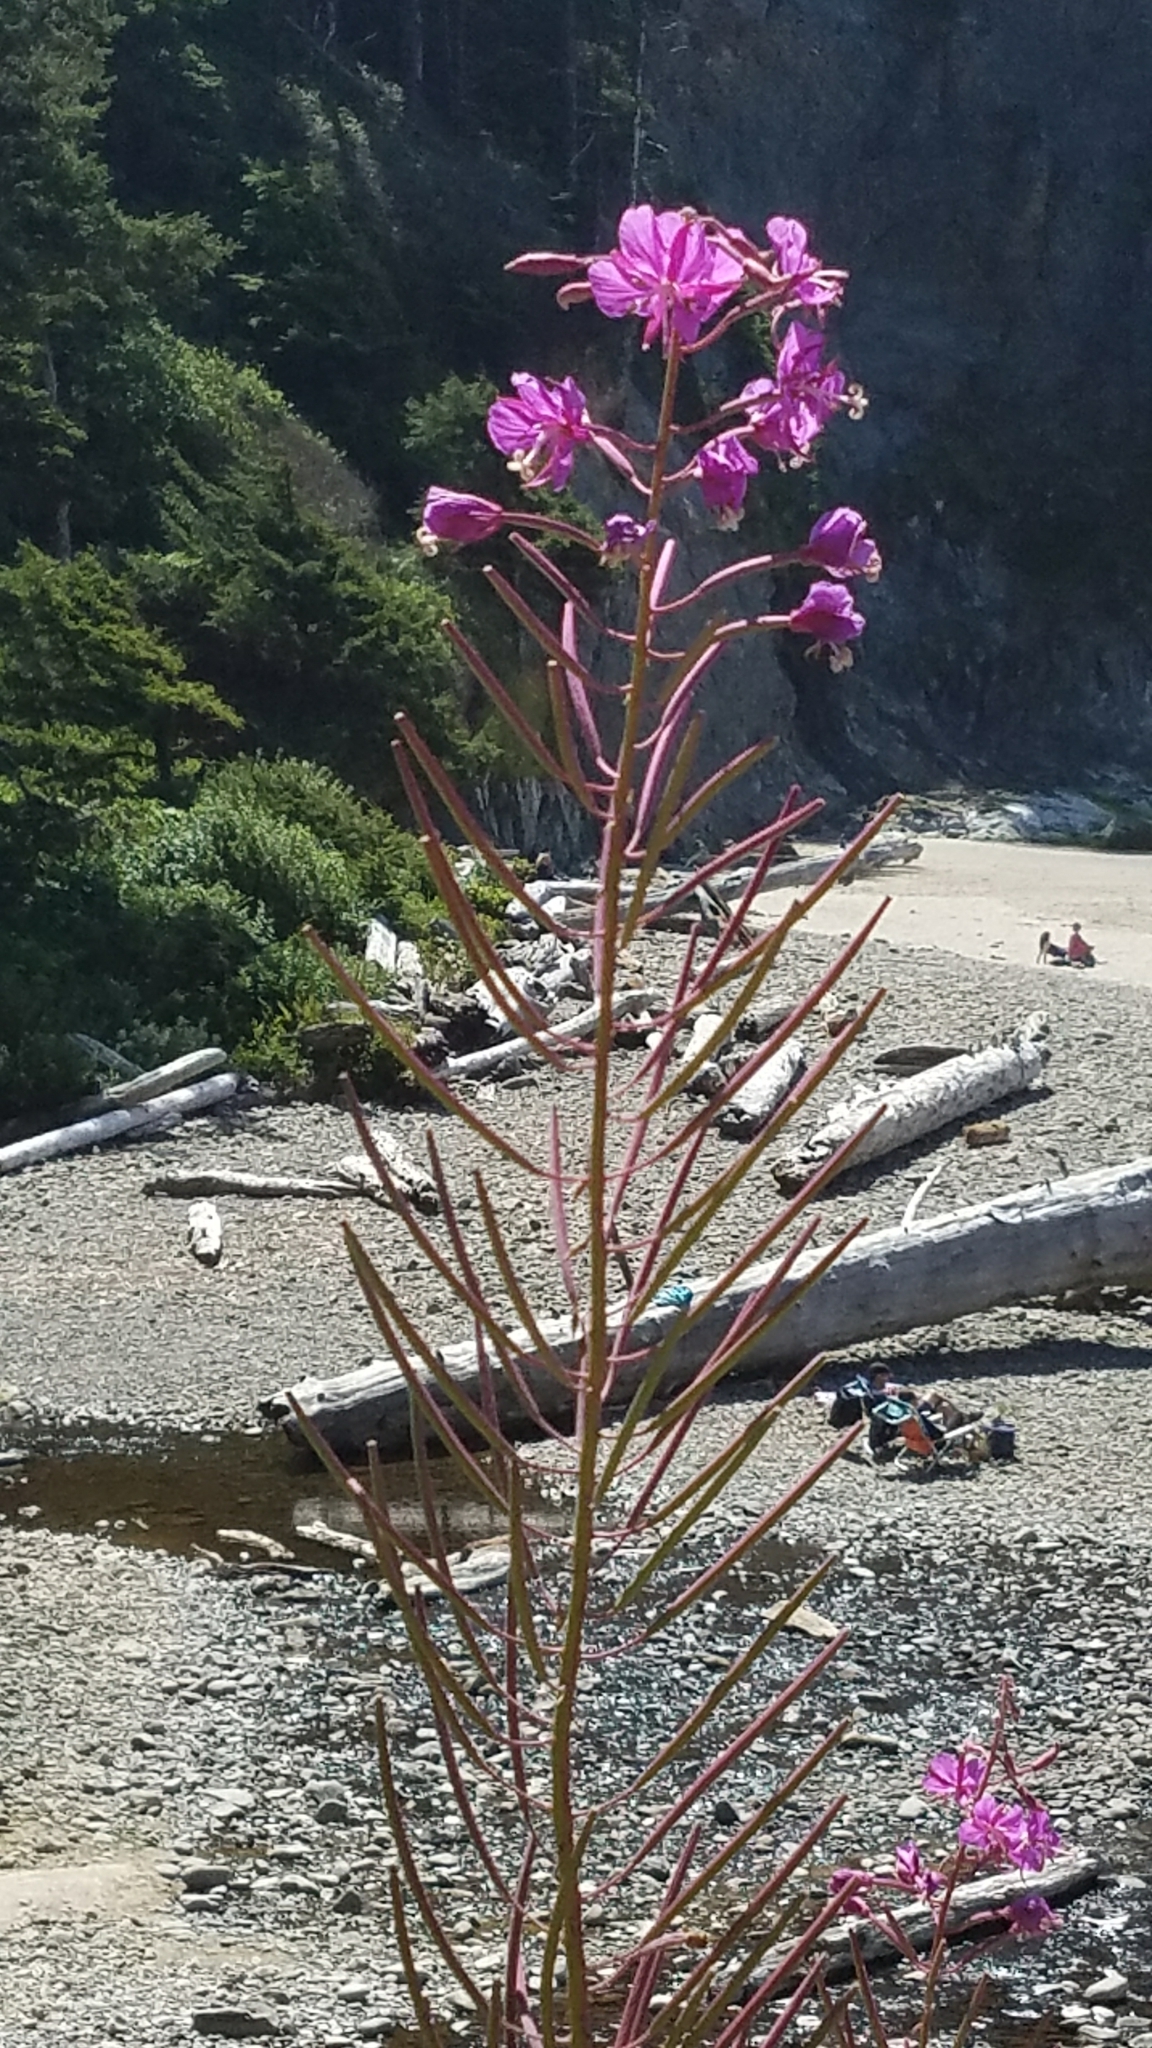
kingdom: Plantae
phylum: Tracheophyta
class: Magnoliopsida
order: Myrtales
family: Onagraceae
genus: Chamaenerion
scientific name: Chamaenerion angustifolium
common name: Fireweed
